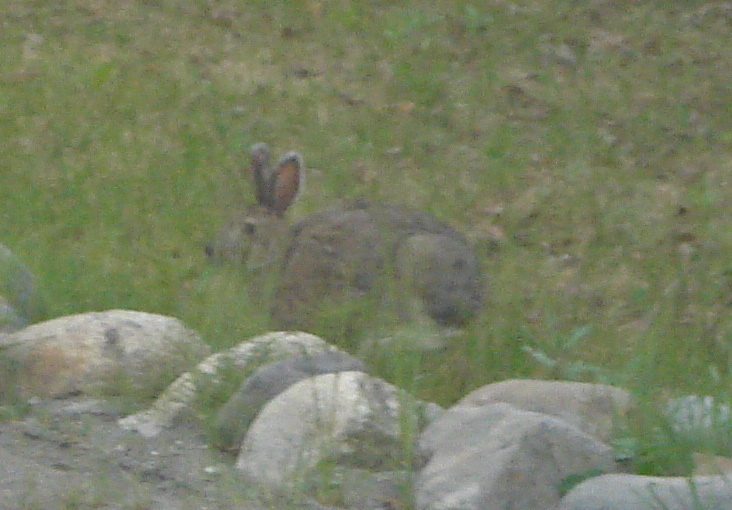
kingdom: Animalia
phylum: Chordata
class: Mammalia
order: Lagomorpha
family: Leporidae
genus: Lepus
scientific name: Lepus americanus
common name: Snowshoe hare
